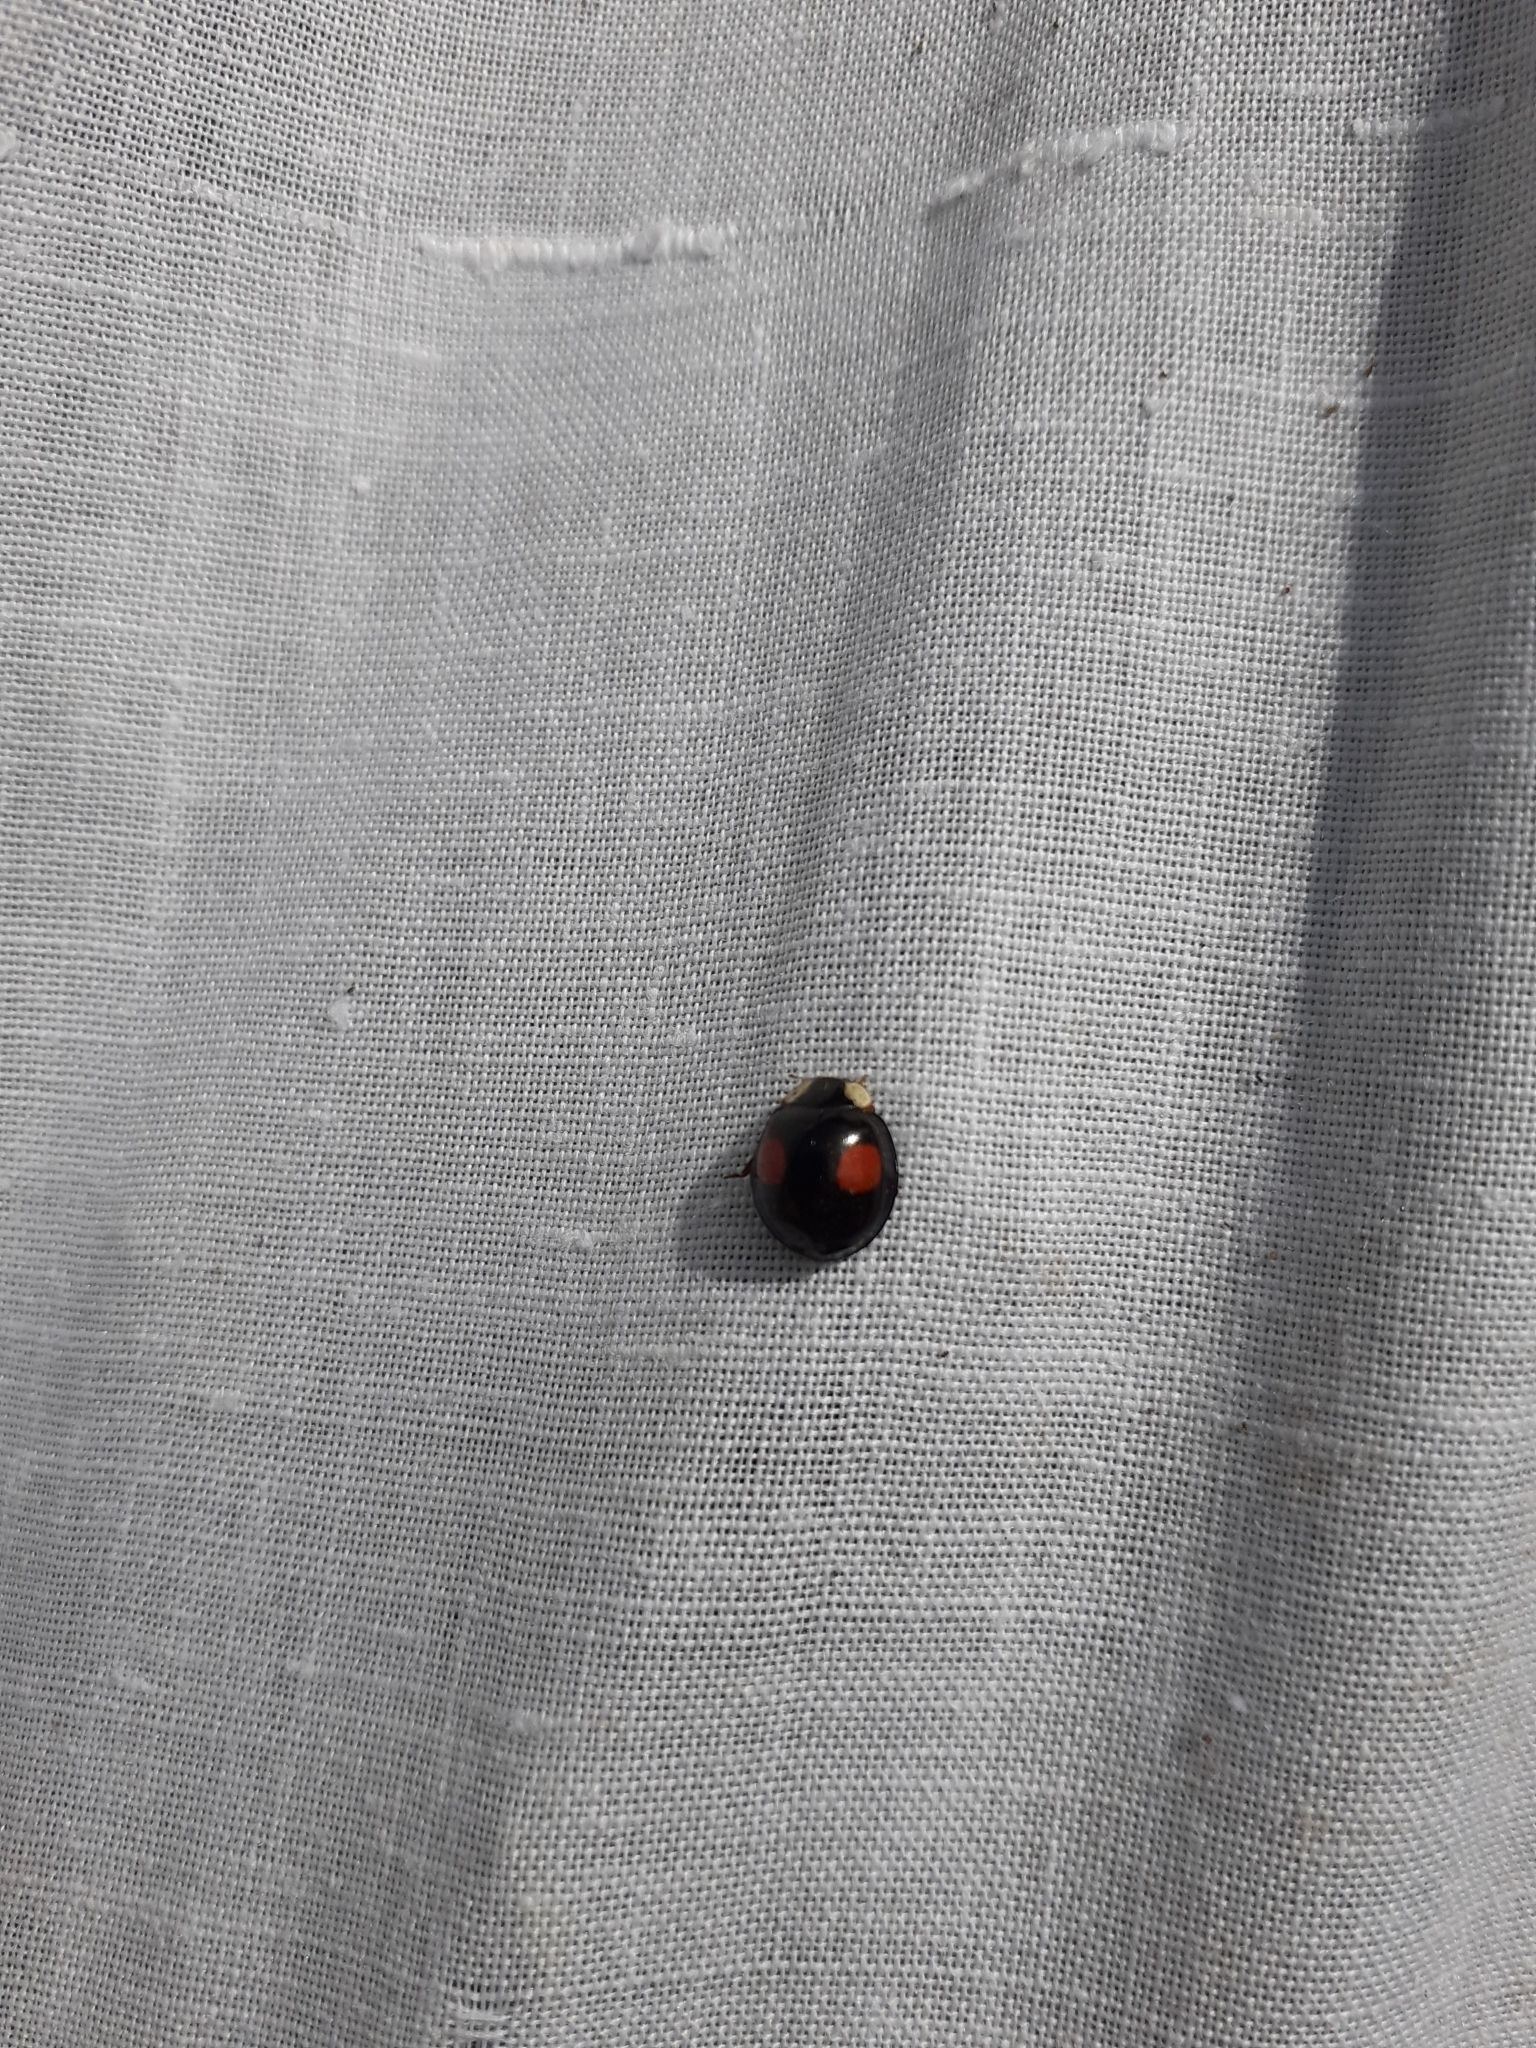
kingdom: Animalia
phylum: Arthropoda
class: Insecta
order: Coleoptera
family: Coccinellidae
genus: Harmonia
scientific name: Harmonia axyridis
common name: Harlequin ladybird
